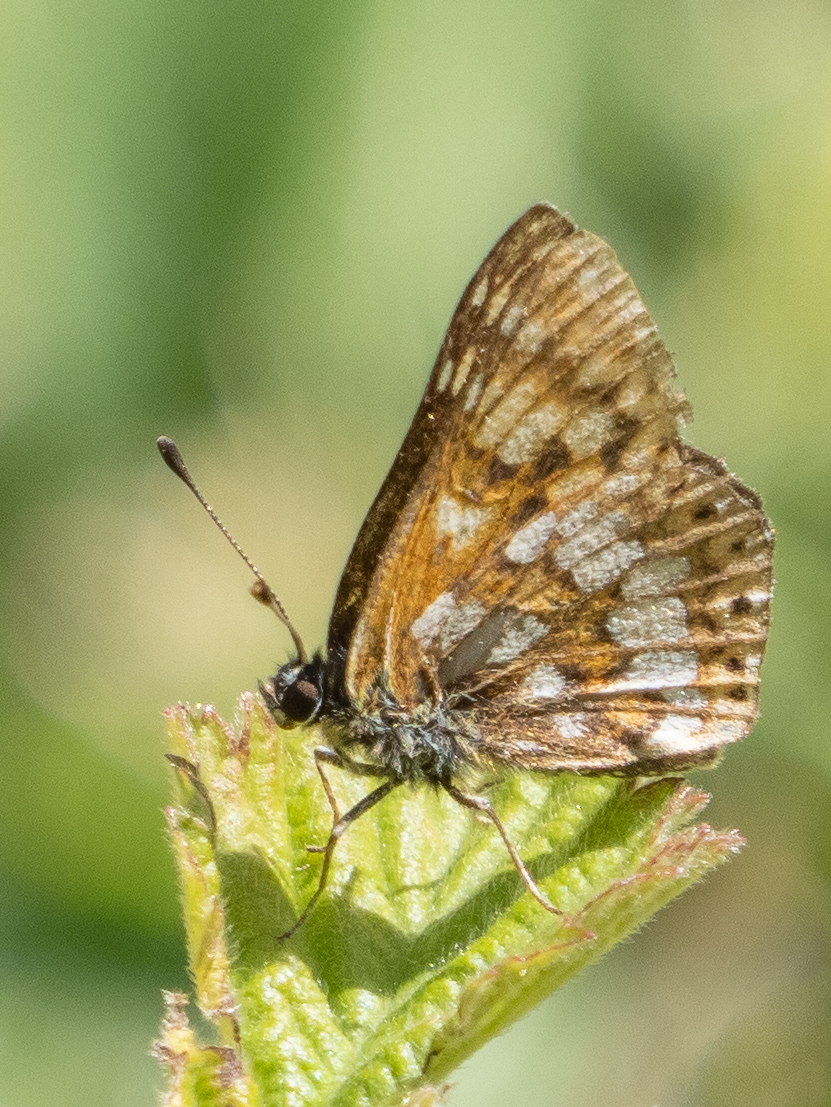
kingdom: Animalia
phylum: Arthropoda
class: Insecta
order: Lepidoptera
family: Riodinidae
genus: Hamearis
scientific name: Hamearis lucina
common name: Duke of burgundy fritillary
